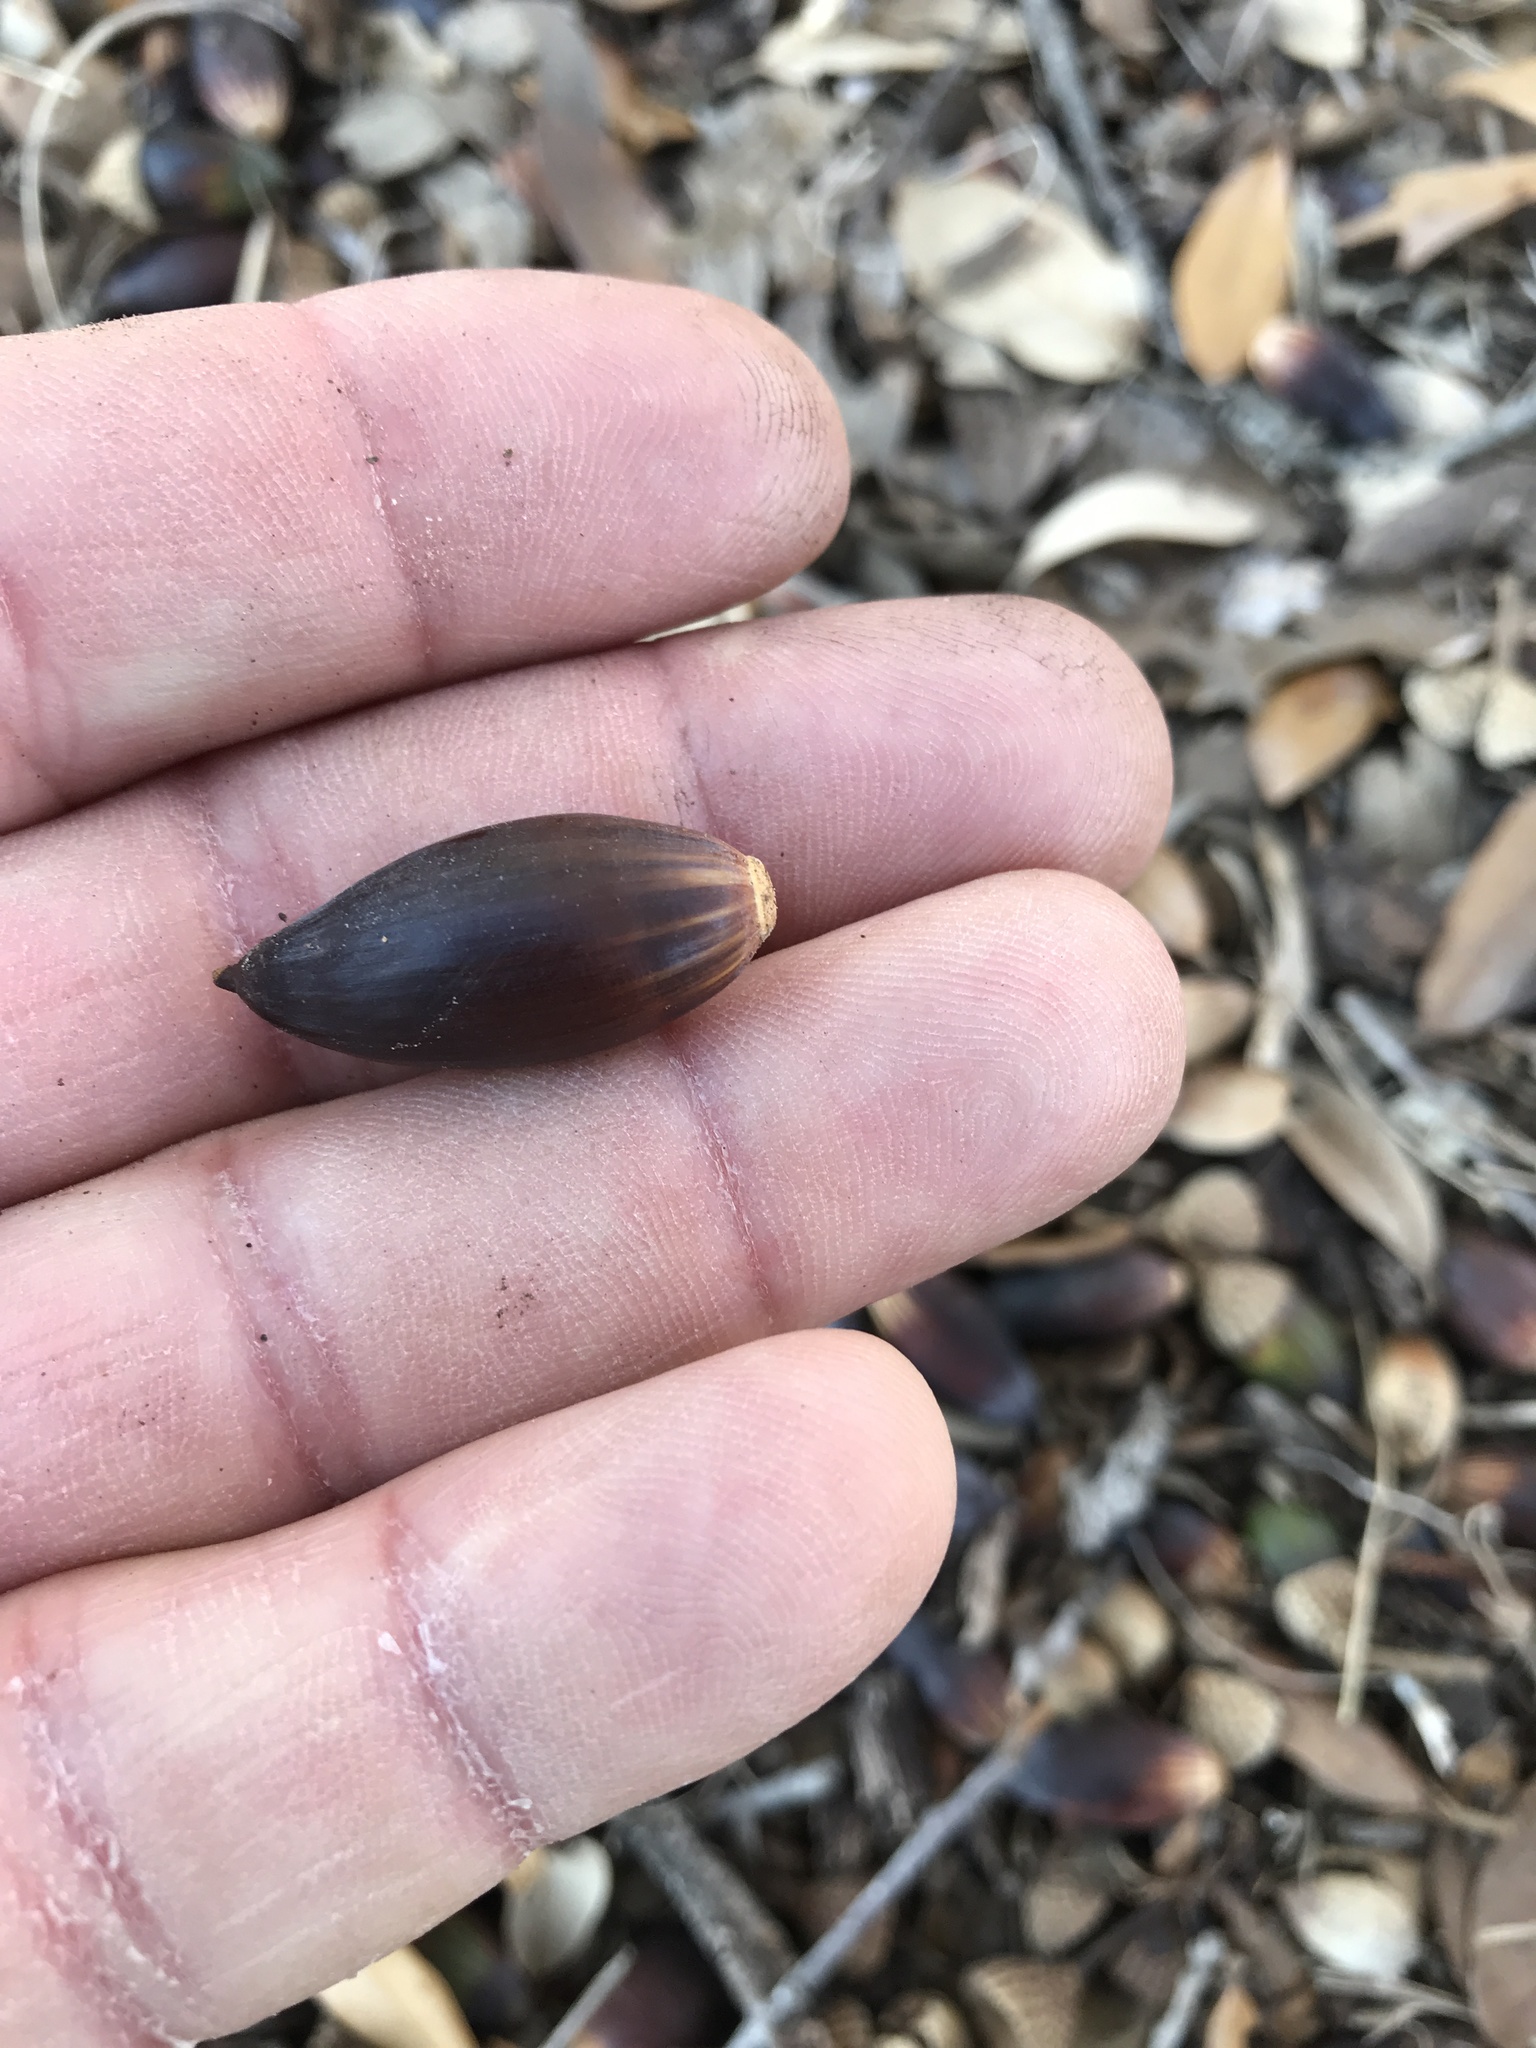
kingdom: Plantae
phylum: Tracheophyta
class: Magnoliopsida
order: Fagales
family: Fagaceae
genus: Quercus
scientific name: Quercus fusiformis
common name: Texas live oak
